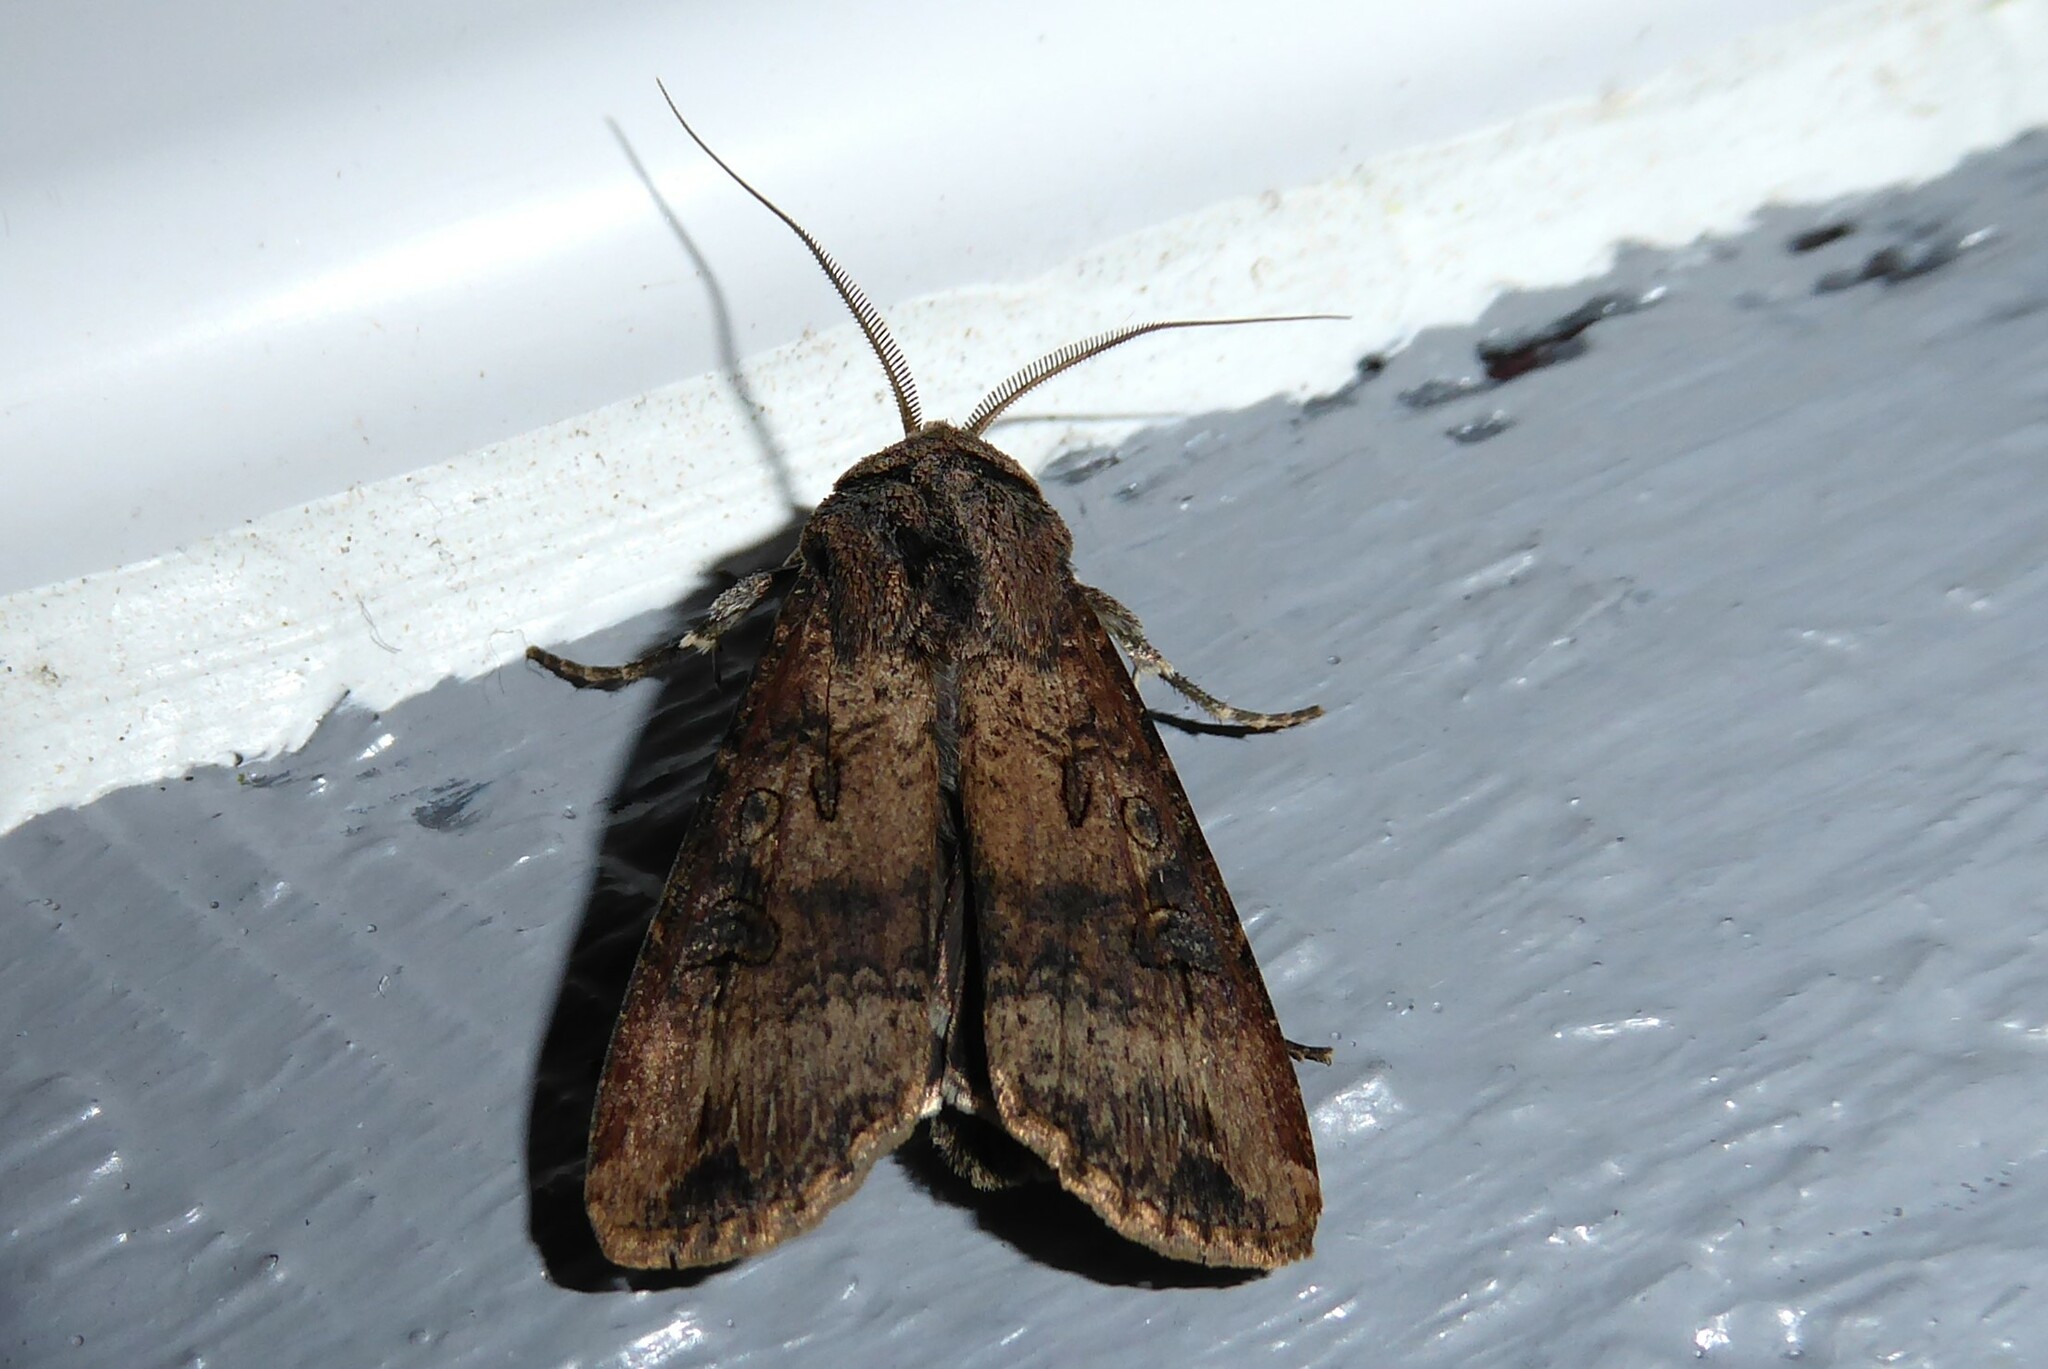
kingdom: Animalia
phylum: Arthropoda
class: Insecta
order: Lepidoptera
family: Noctuidae
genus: Agrotis
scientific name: Agrotis ipsilon
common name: Dark sword-grass
